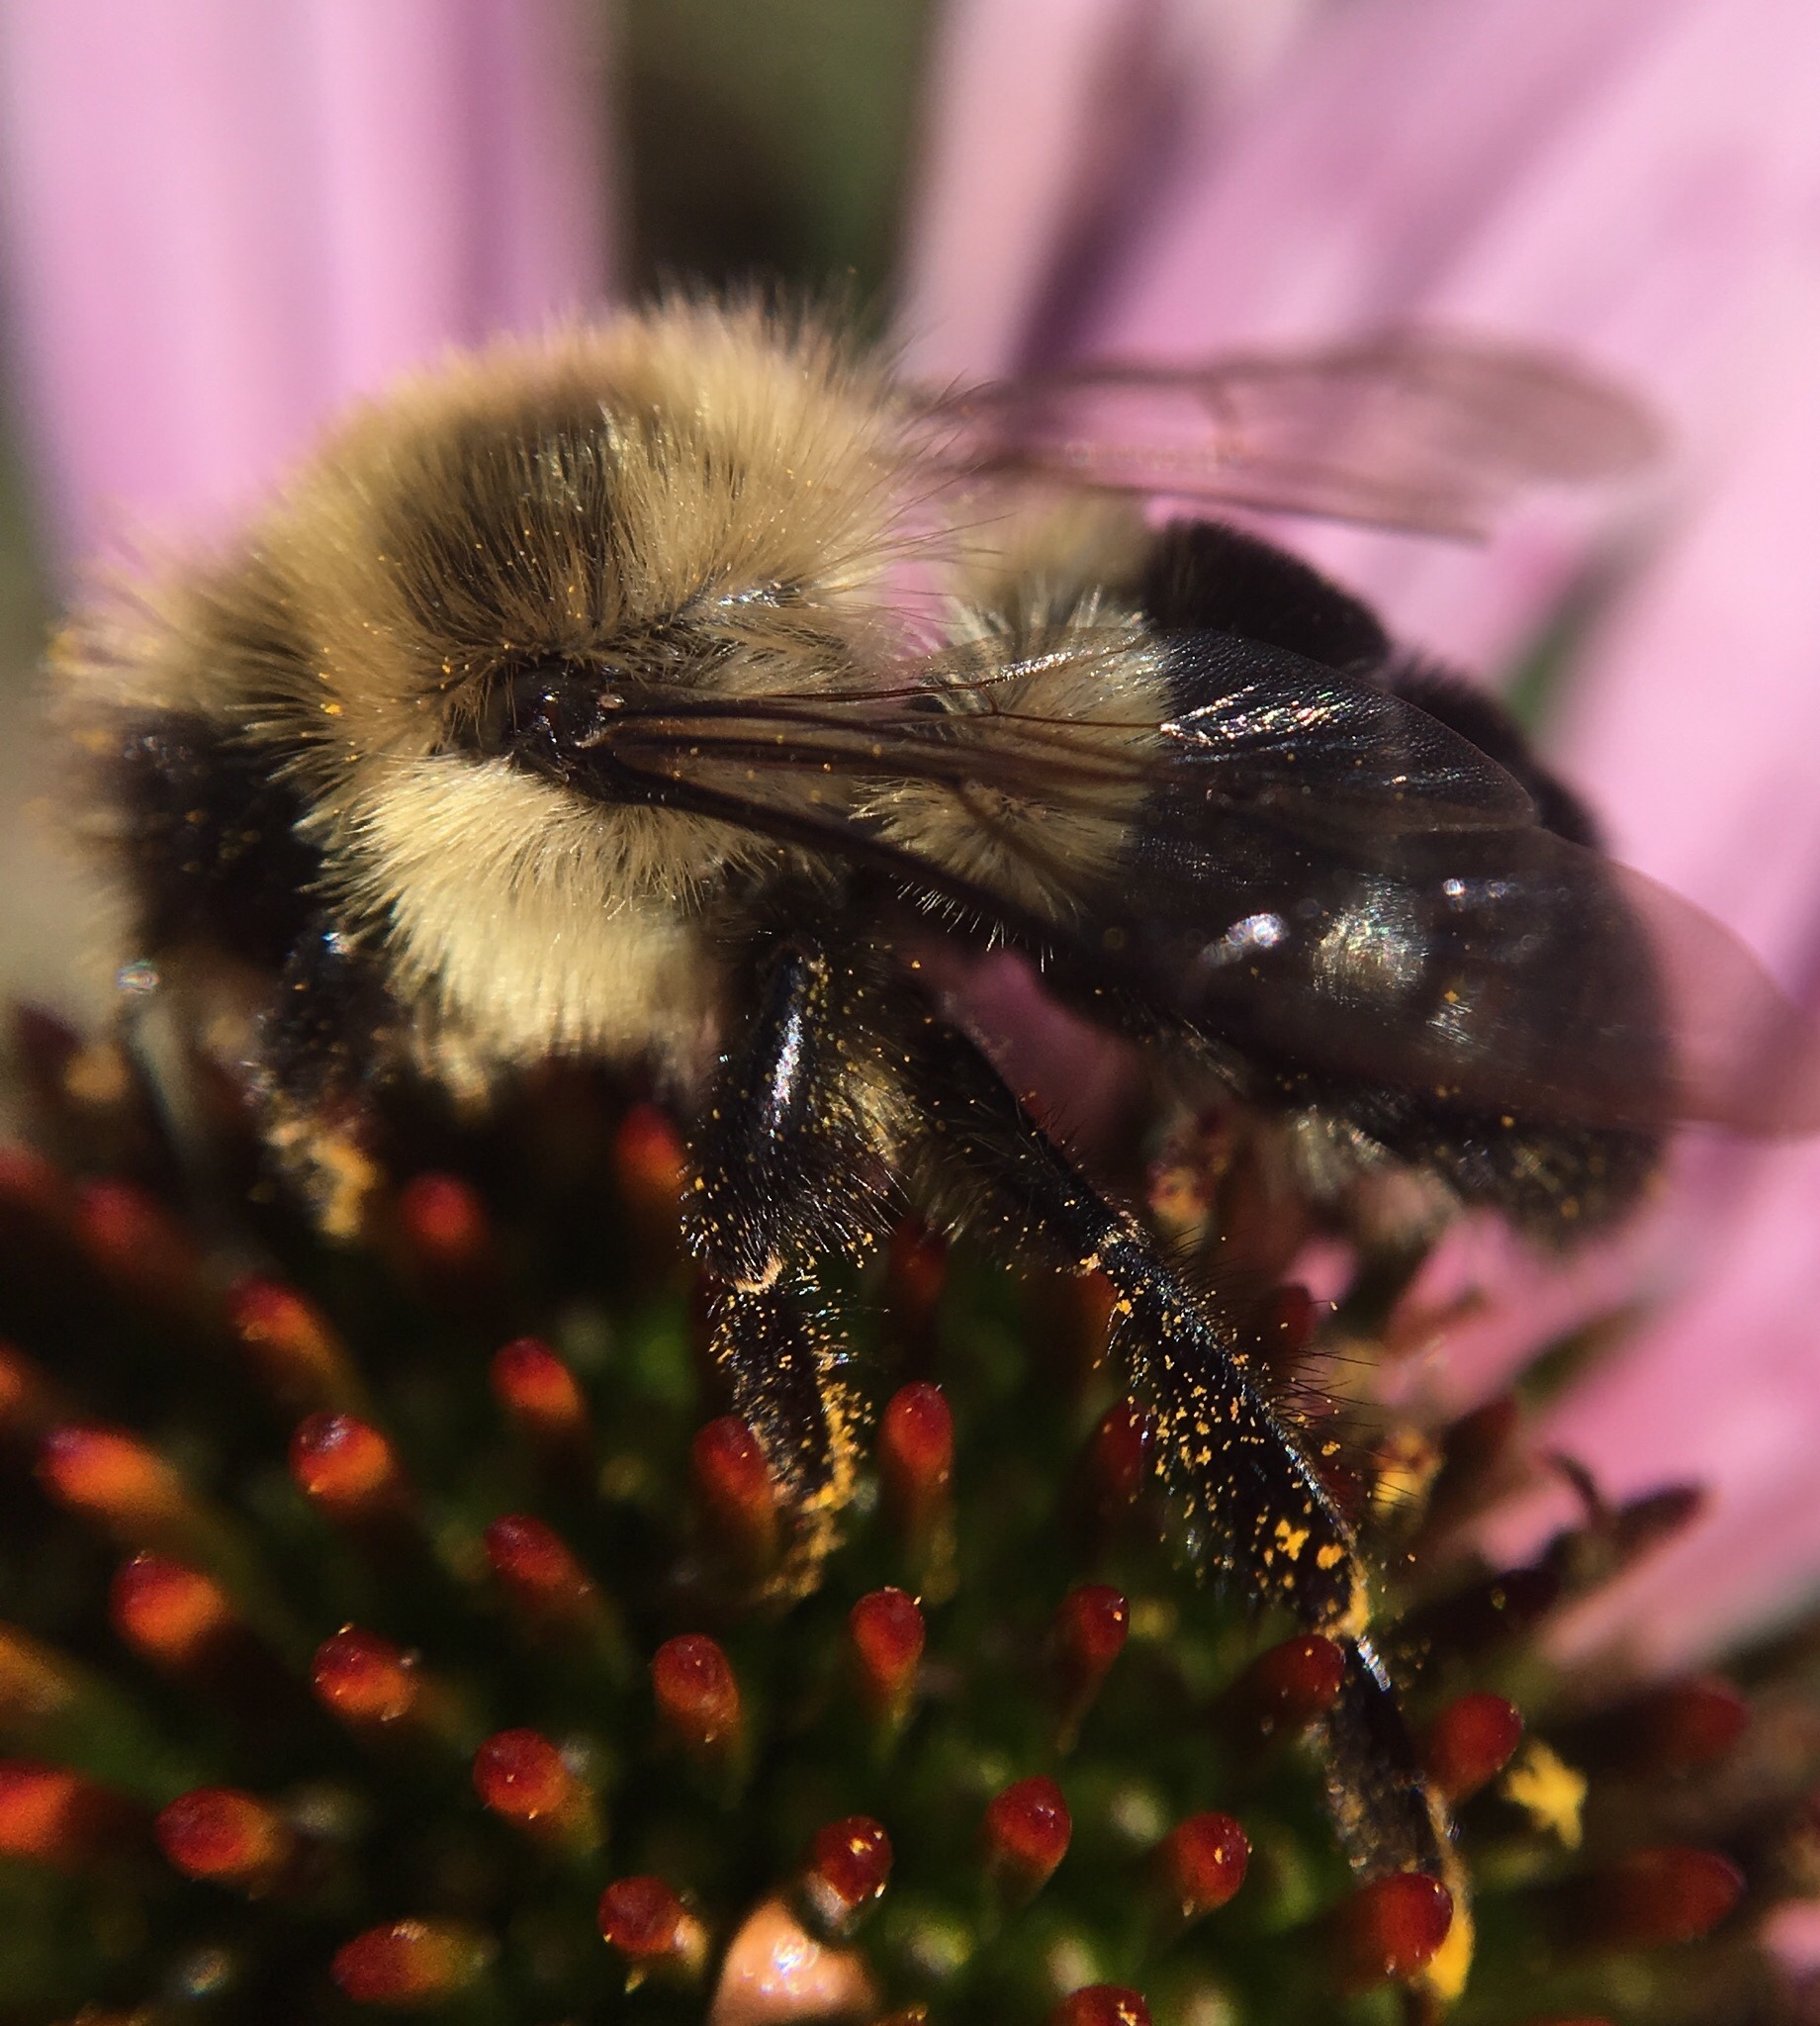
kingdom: Animalia
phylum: Arthropoda
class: Insecta
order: Hymenoptera
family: Apidae
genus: Bombus
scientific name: Bombus impatiens
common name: Common eastern bumble bee
